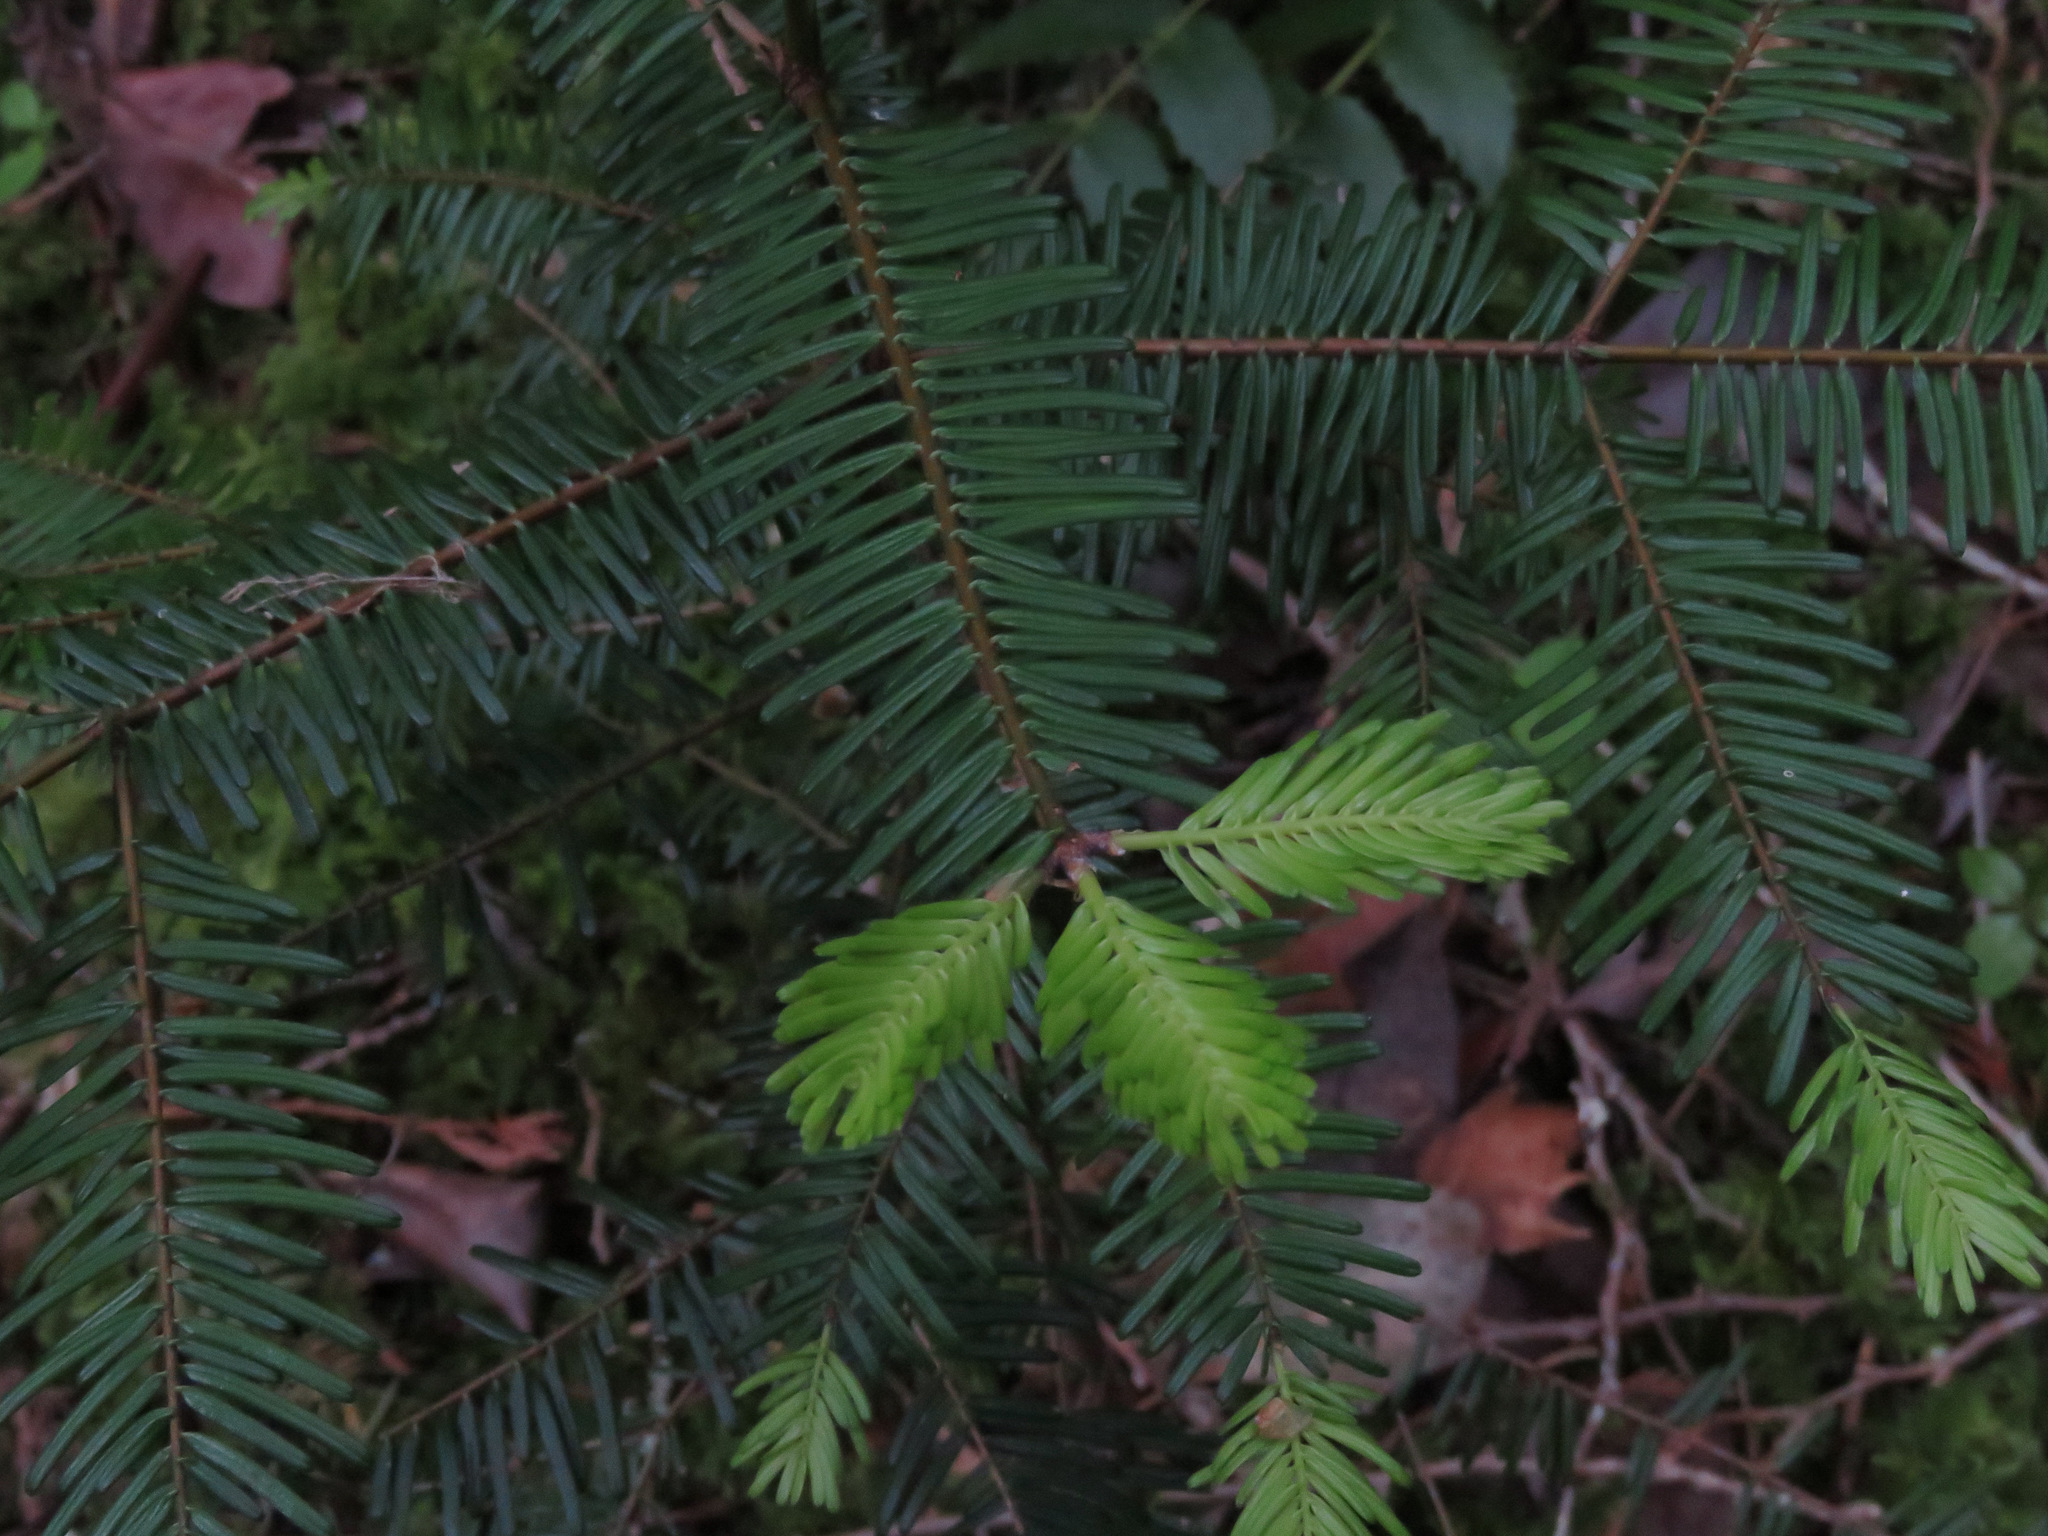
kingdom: Plantae
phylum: Tracheophyta
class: Pinopsida
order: Pinales
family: Pinaceae
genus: Abies
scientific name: Abies grandis
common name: Giant fir
